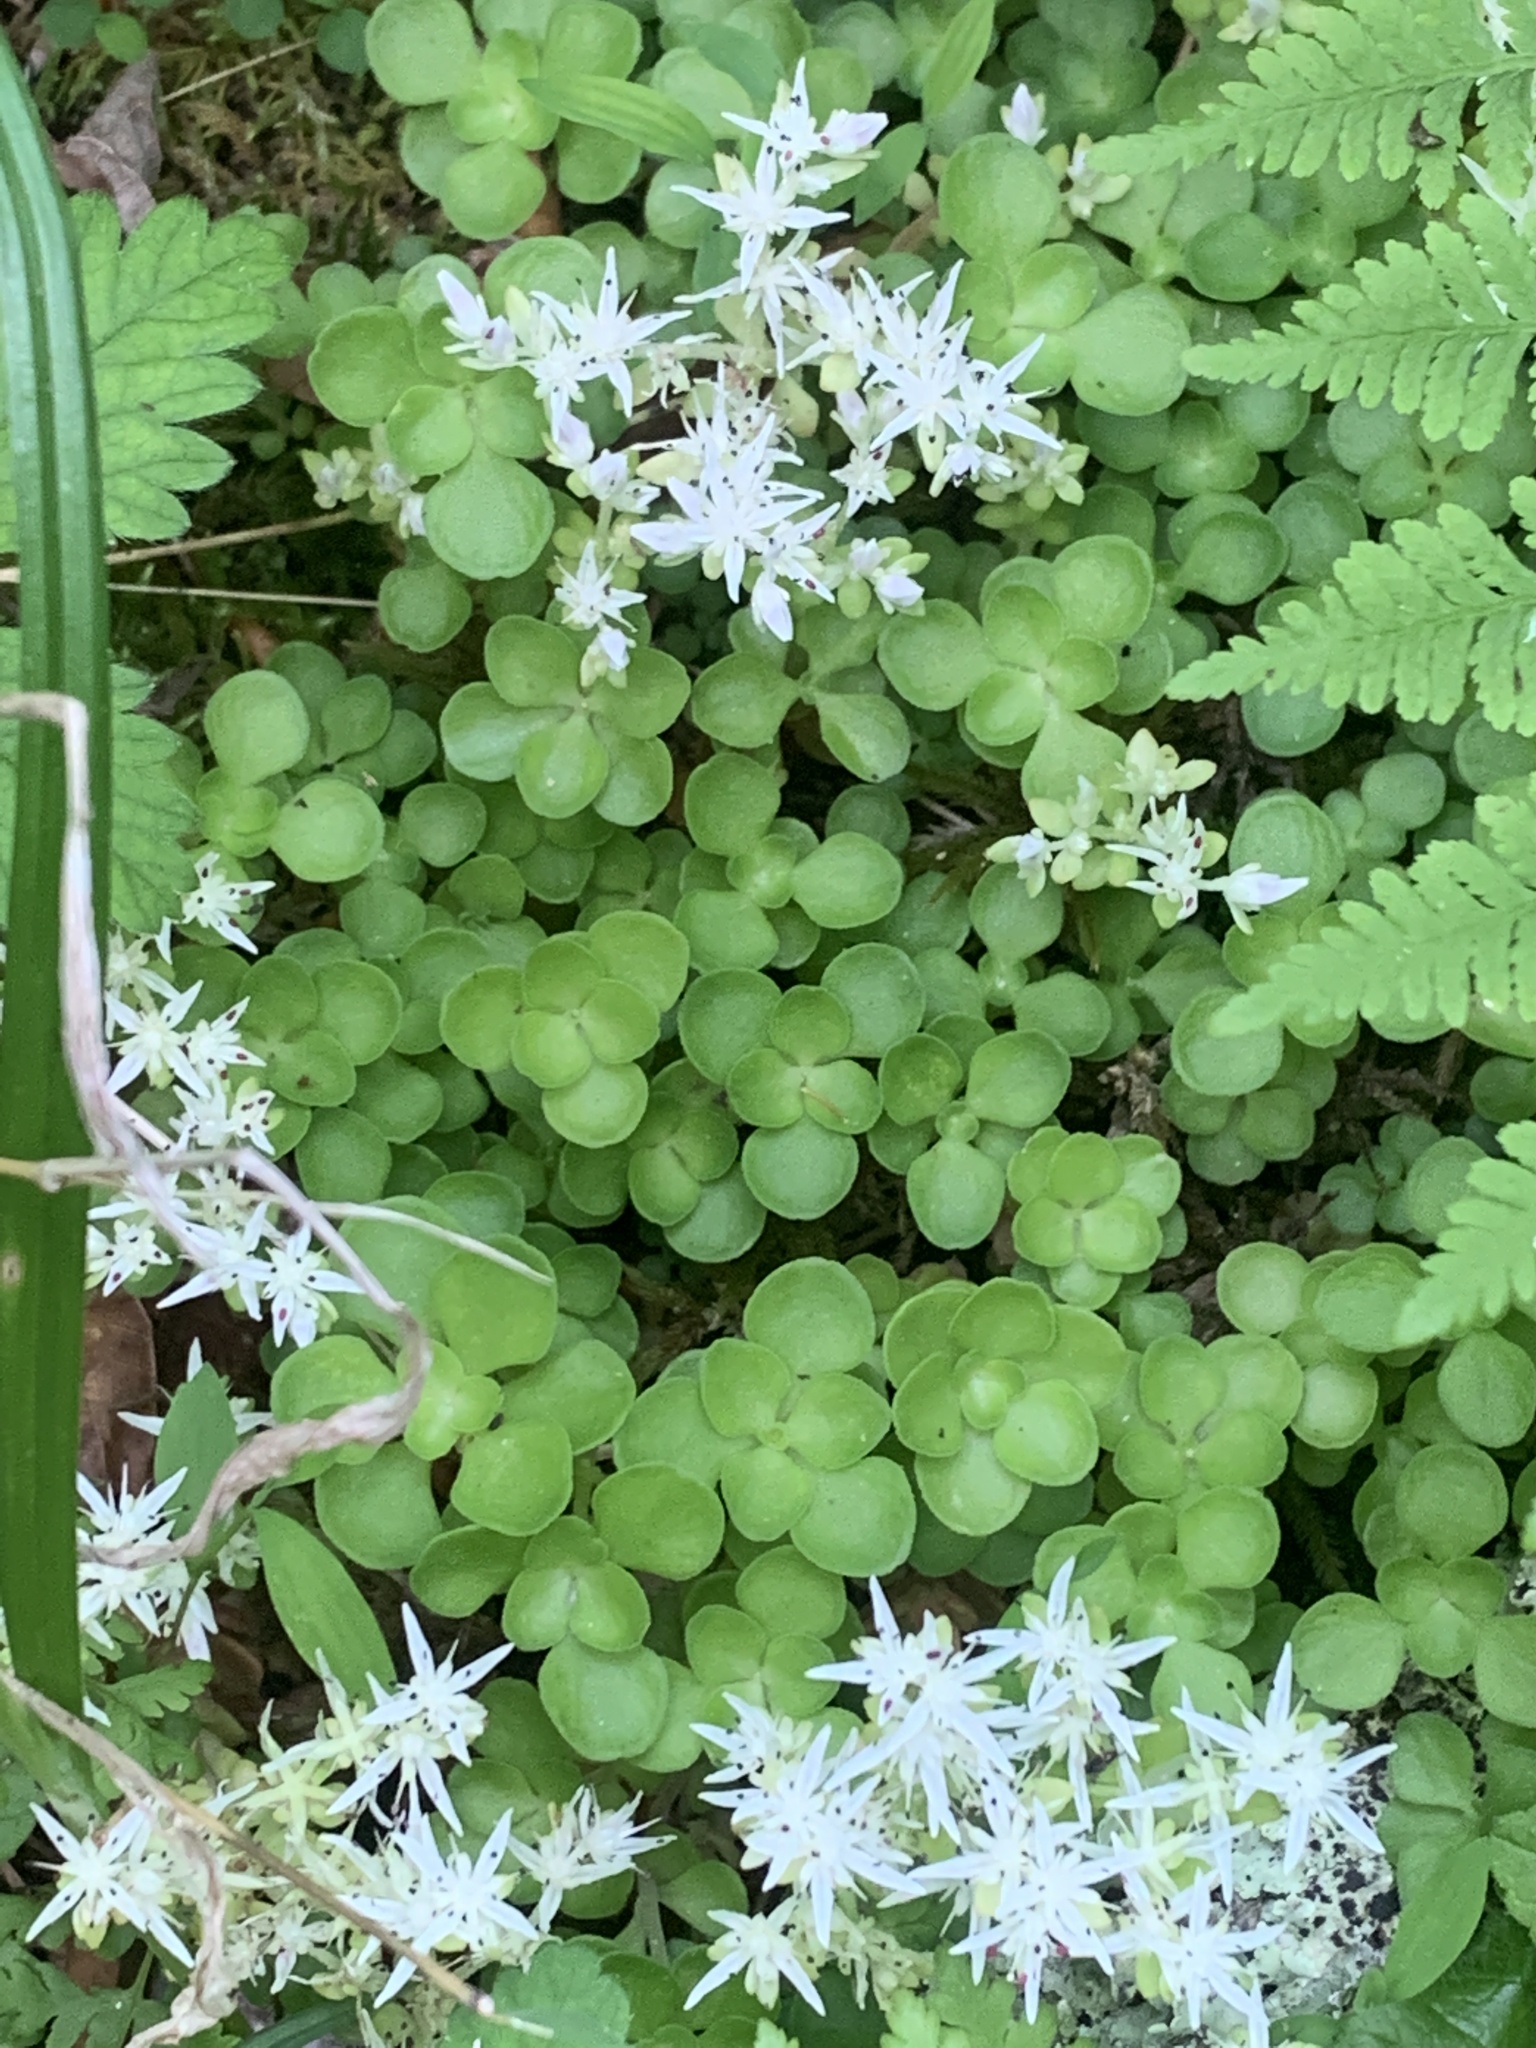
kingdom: Plantae
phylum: Tracheophyta
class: Magnoliopsida
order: Saxifragales
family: Crassulaceae
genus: Sedum
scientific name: Sedum ternatum
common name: Wild stonecrop
